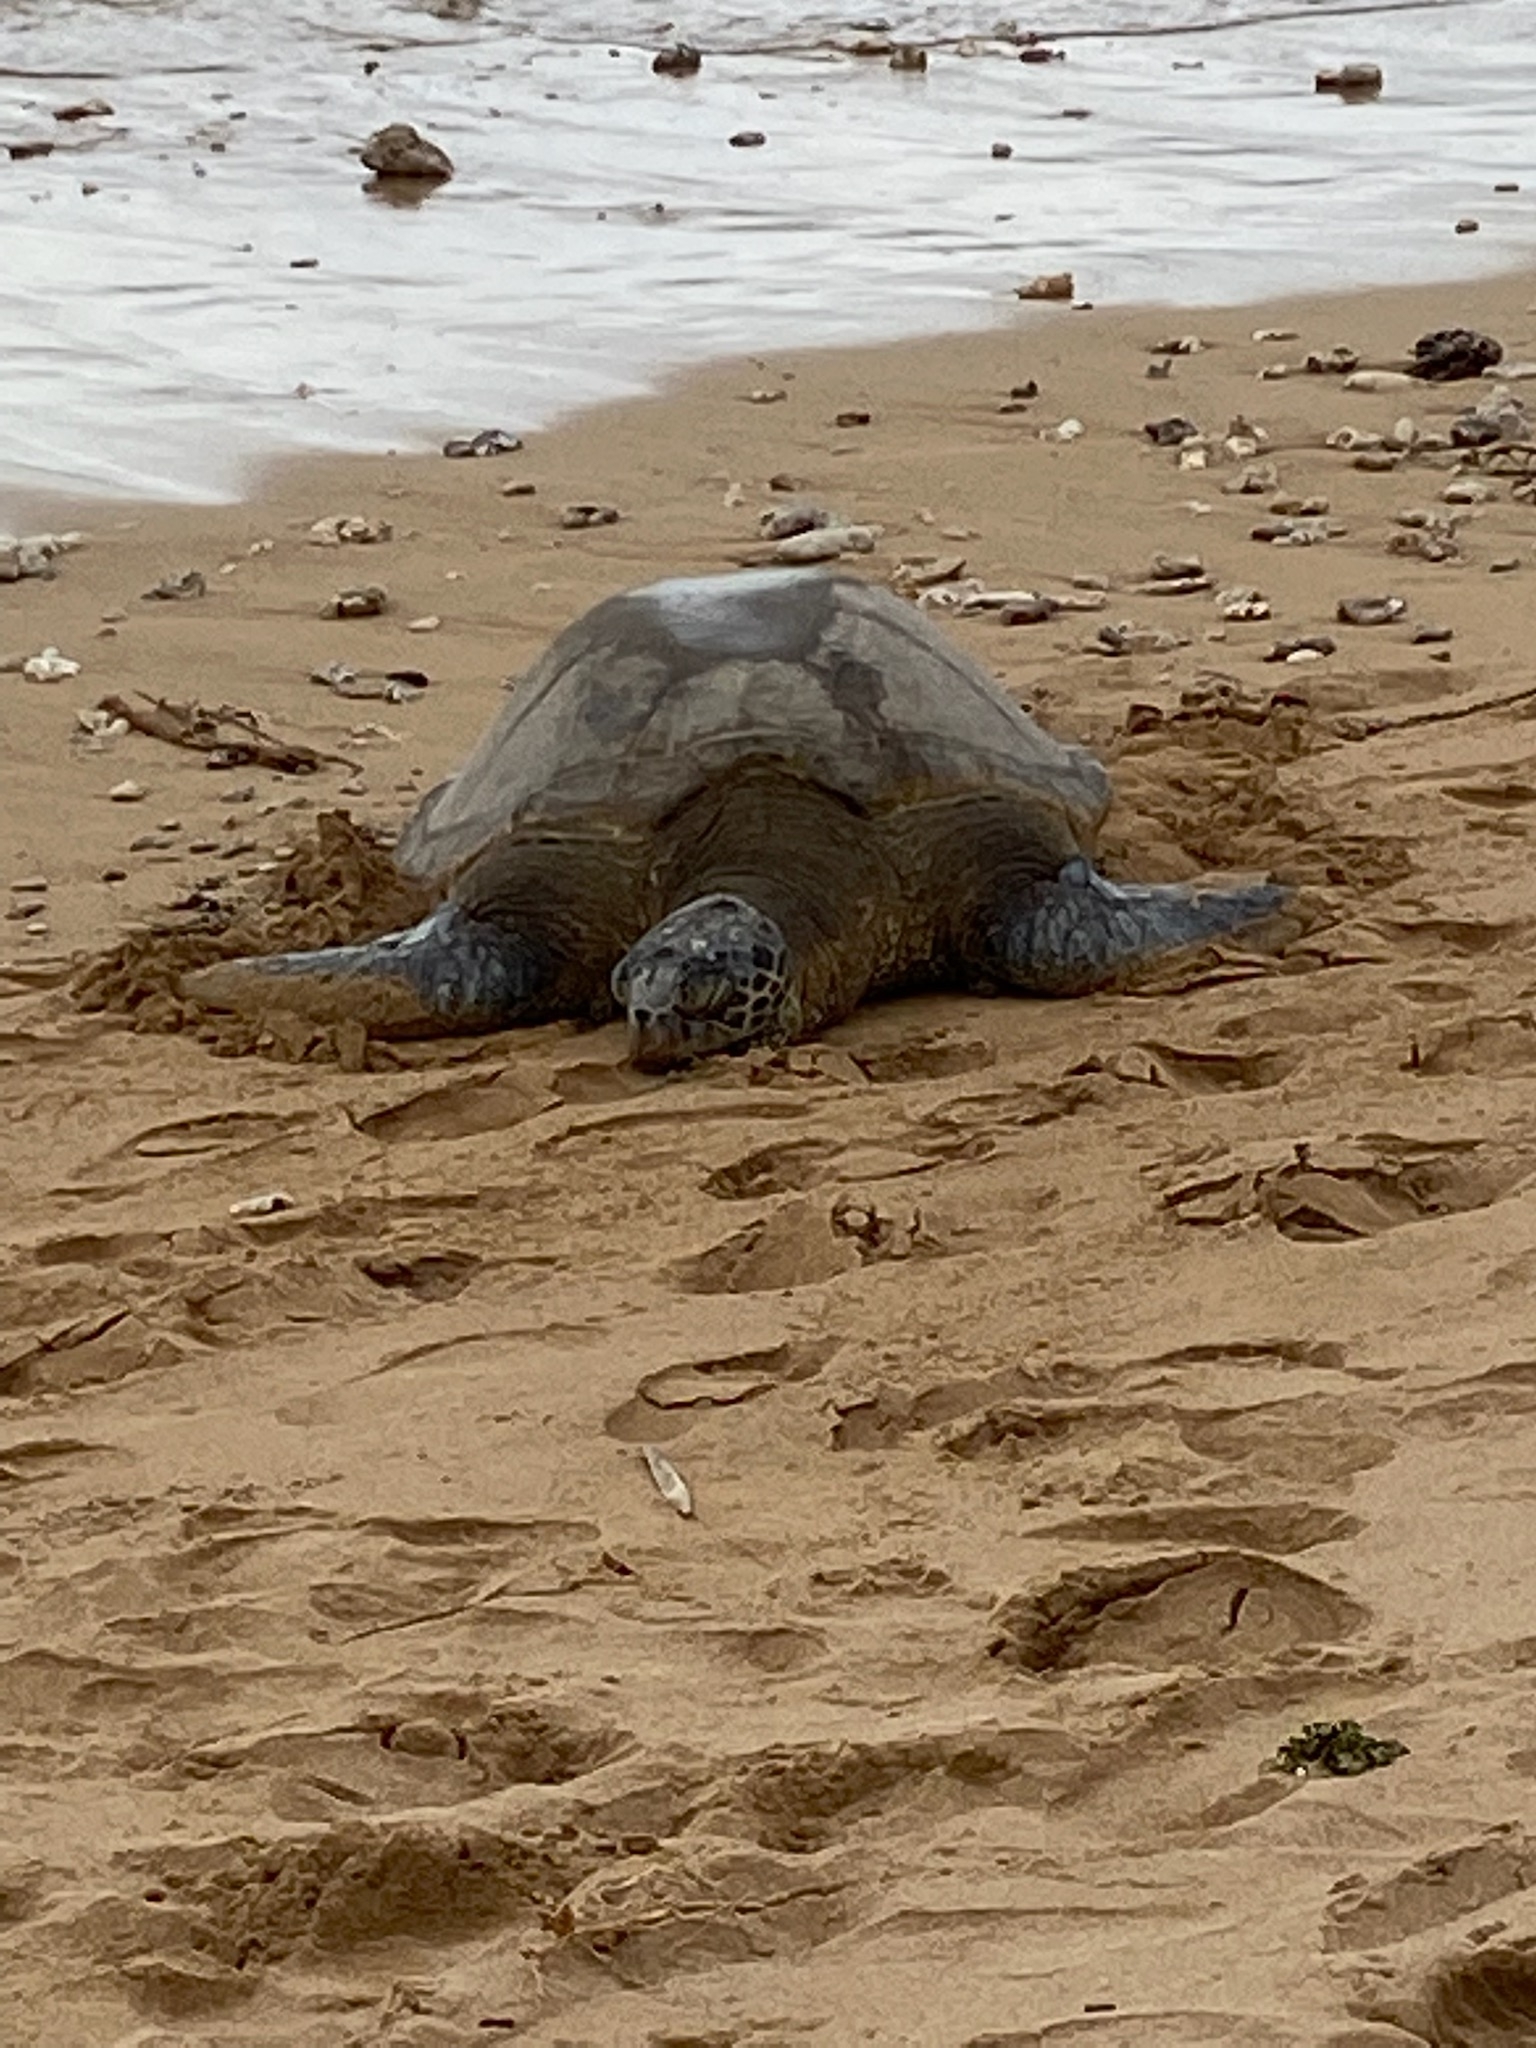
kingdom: Animalia
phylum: Chordata
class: Testudines
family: Cheloniidae
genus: Chelonia
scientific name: Chelonia mydas
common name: Green turtle
